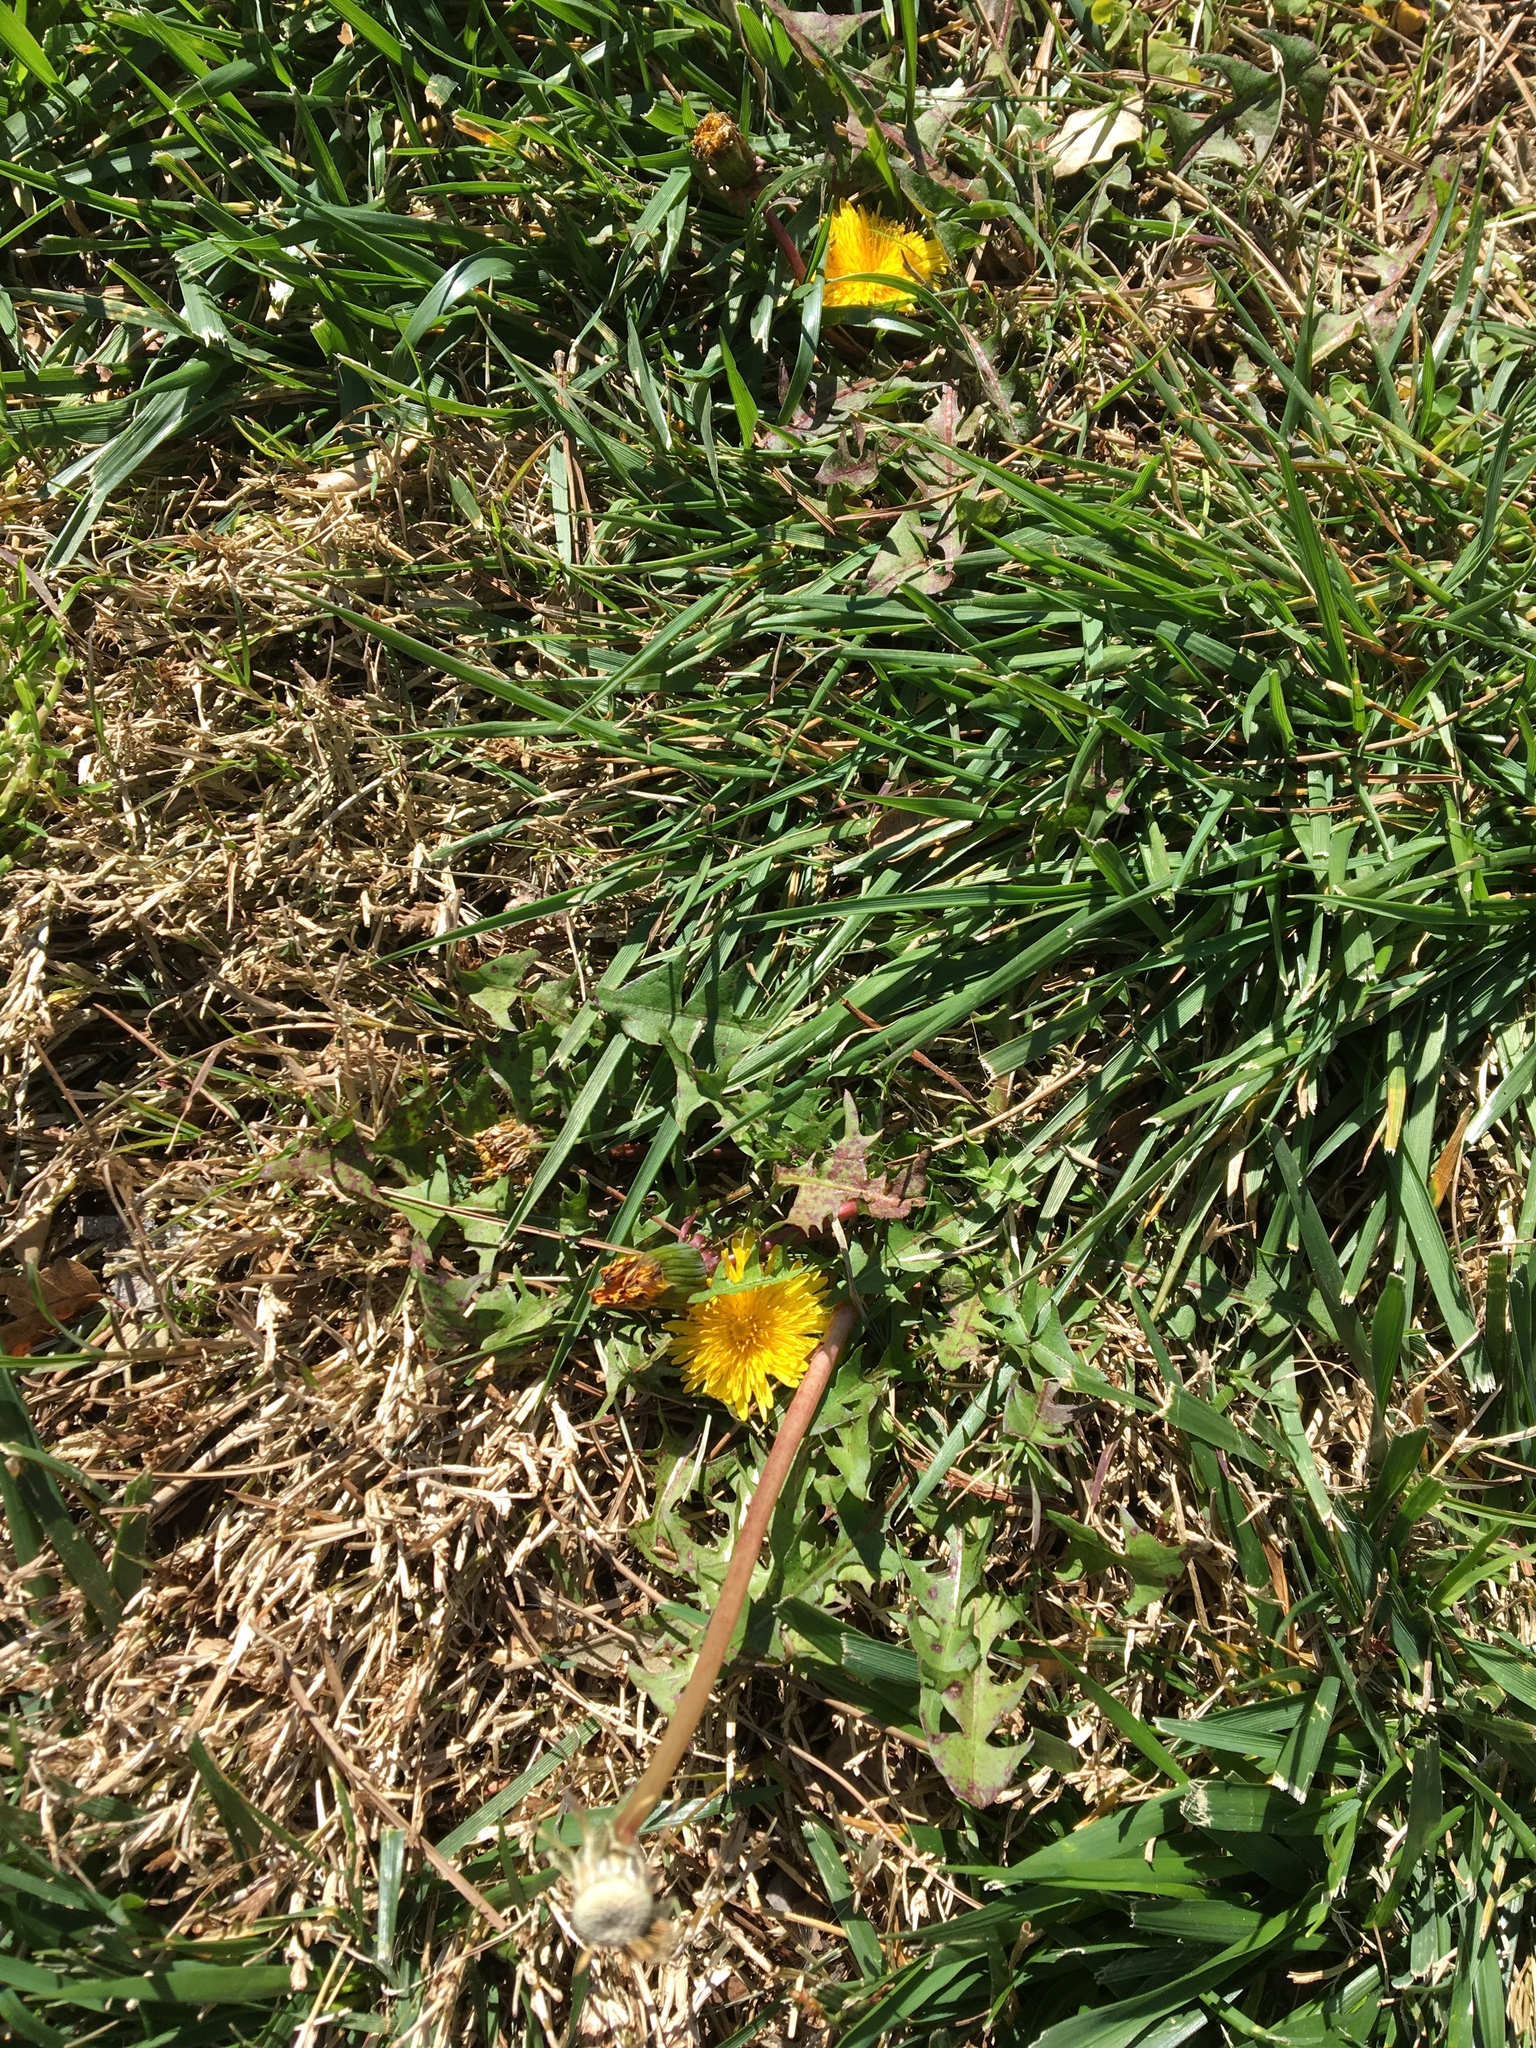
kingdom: Plantae
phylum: Tracheophyta
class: Magnoliopsida
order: Asterales
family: Asteraceae
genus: Taraxacum
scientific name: Taraxacum officinale
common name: Common dandelion
